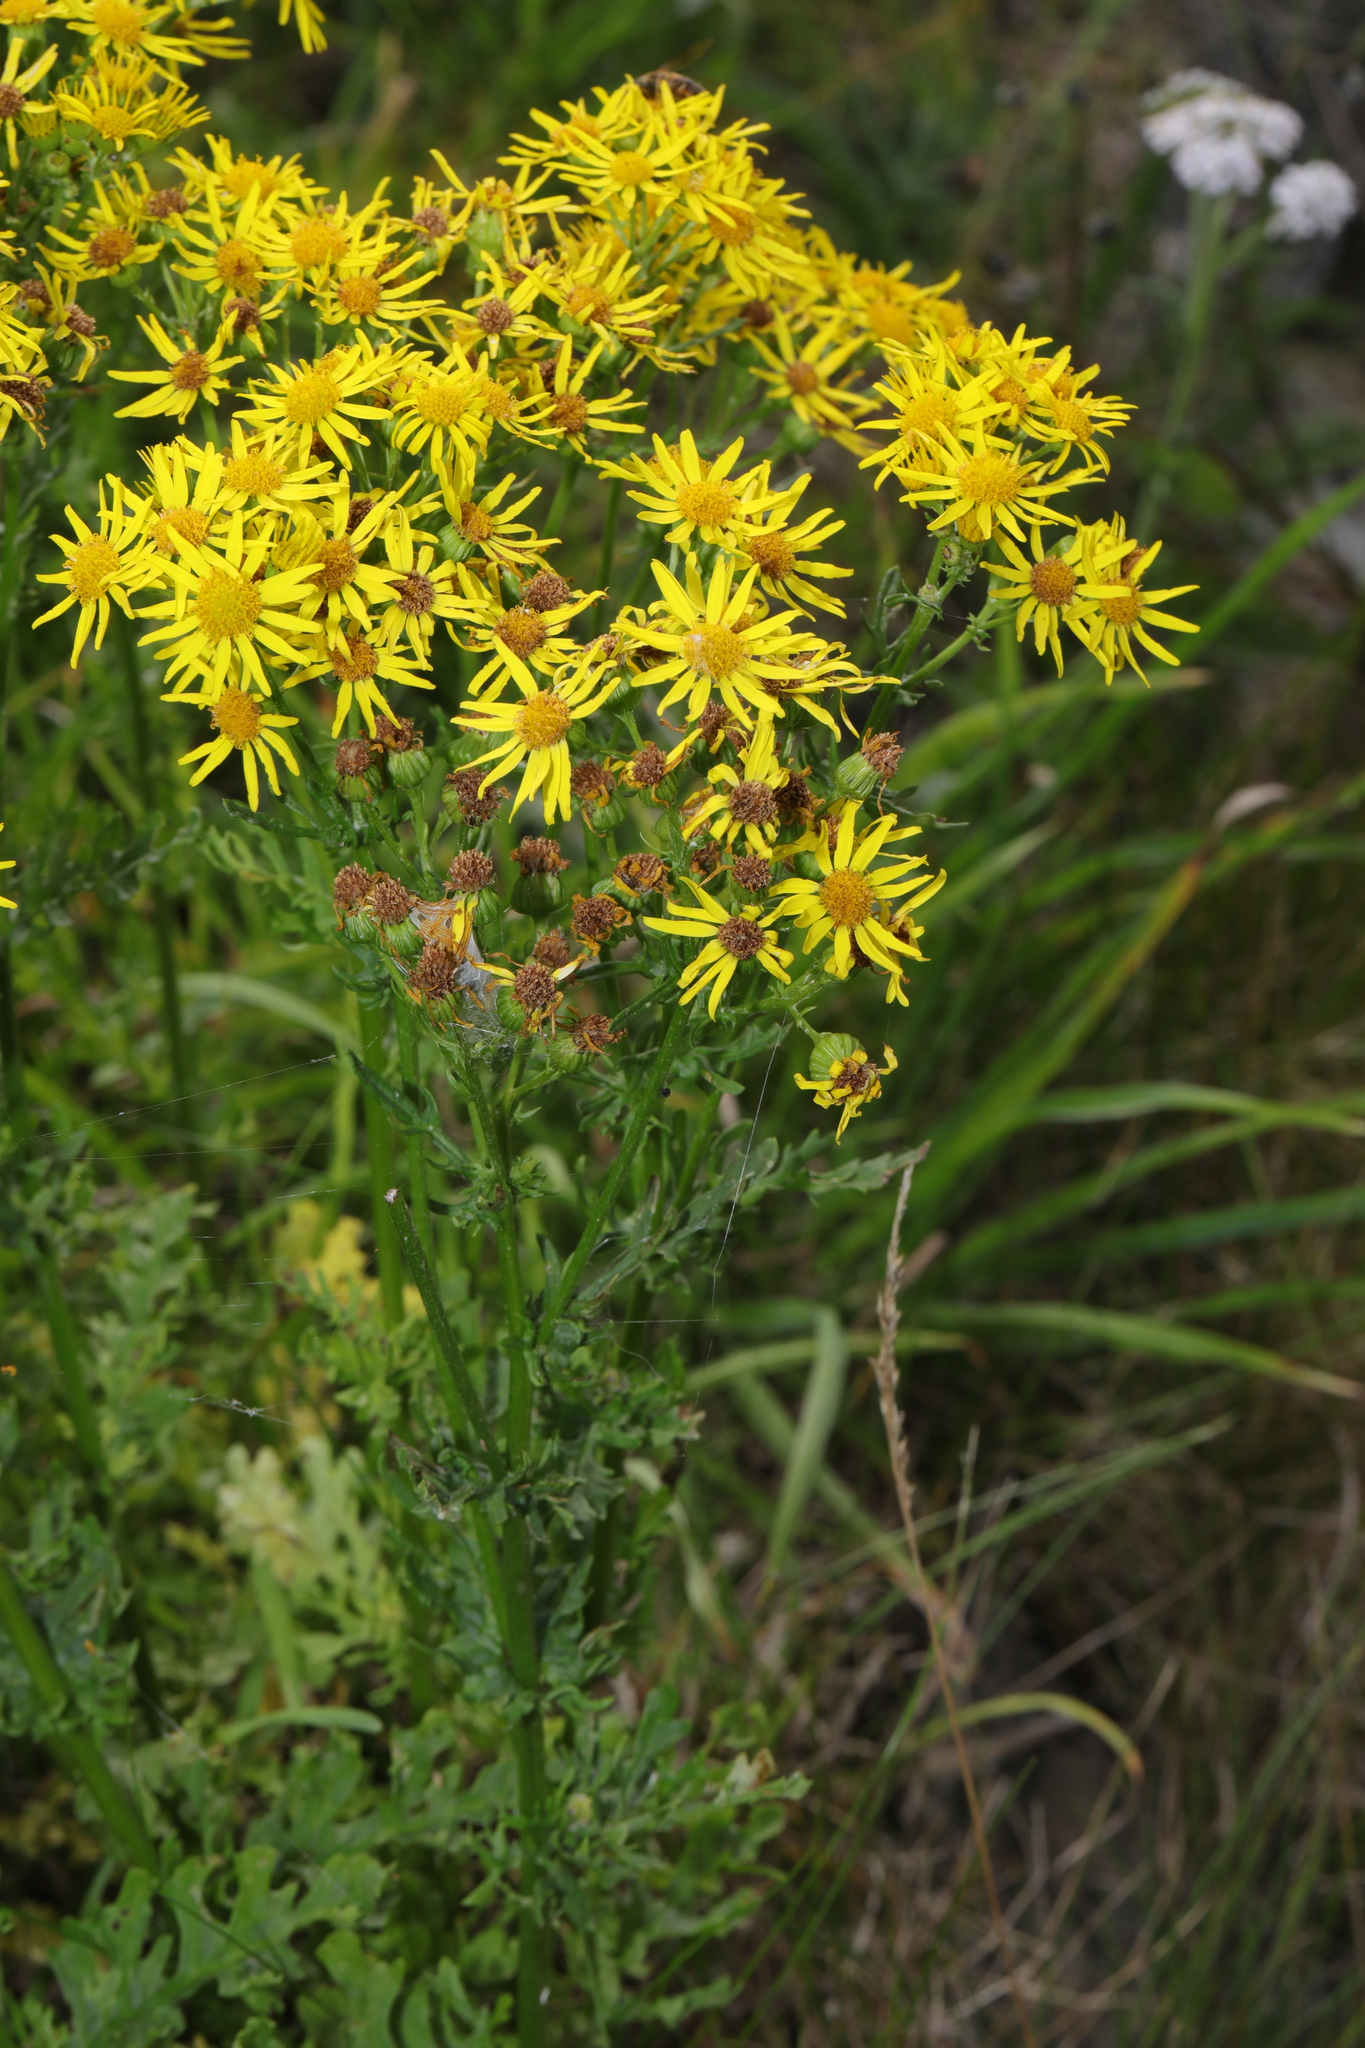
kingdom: Plantae
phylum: Tracheophyta
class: Magnoliopsida
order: Asterales
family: Asteraceae
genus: Jacobaea
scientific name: Jacobaea vulgaris
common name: Stinking willie
